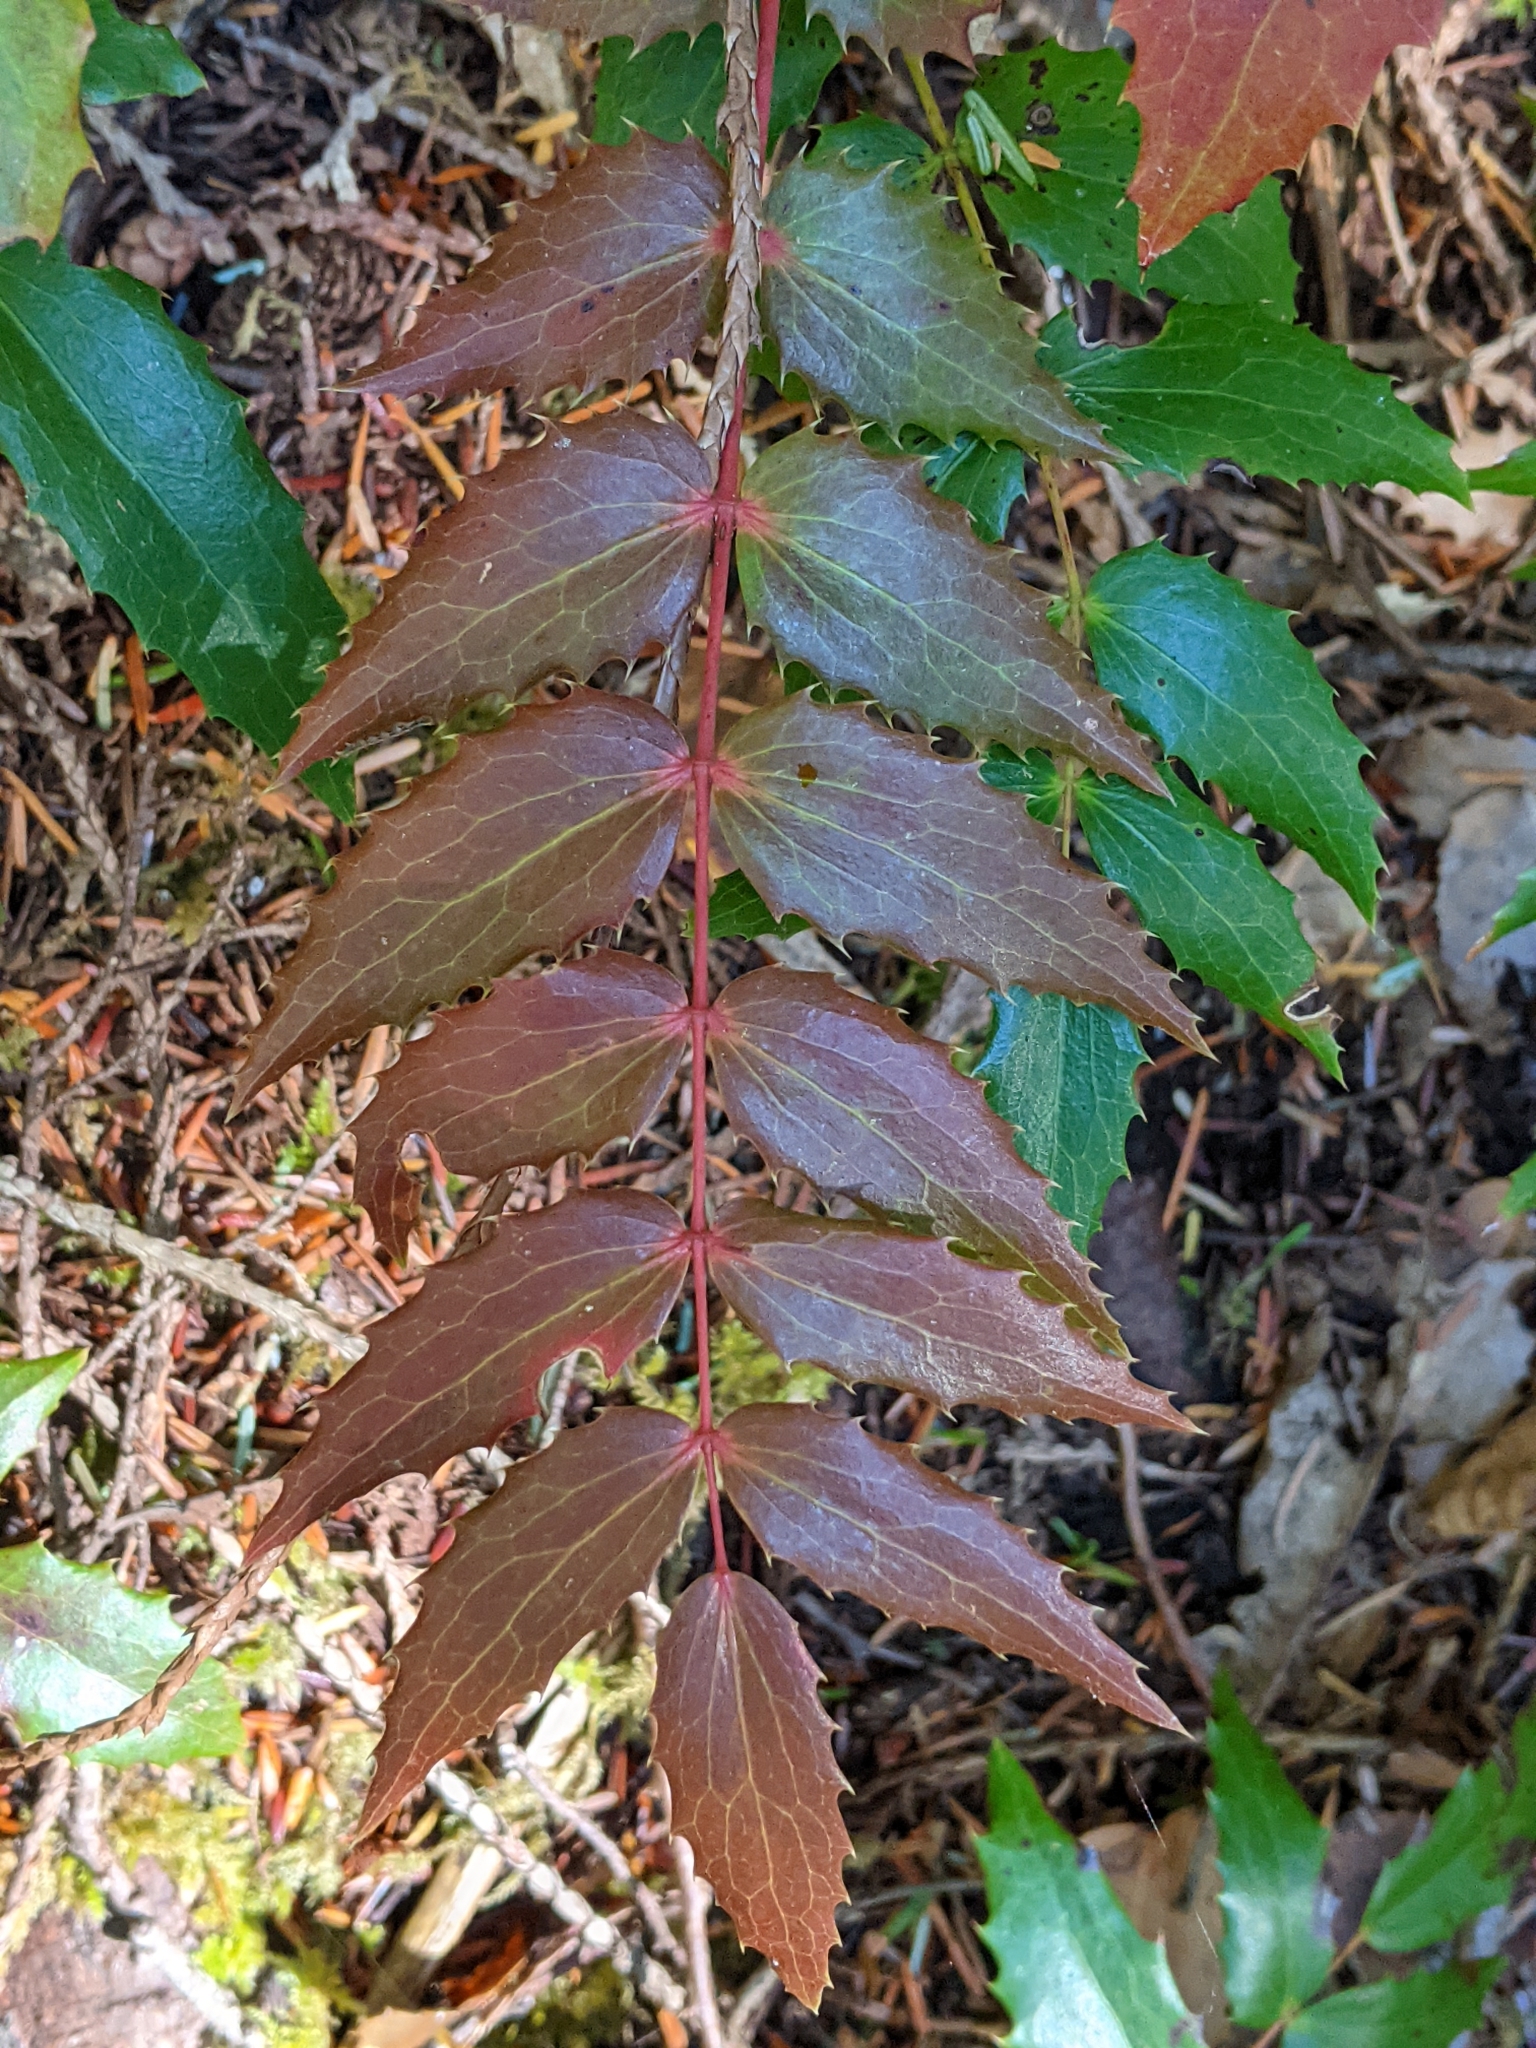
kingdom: Plantae
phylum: Tracheophyta
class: Magnoliopsida
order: Ranunculales
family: Berberidaceae
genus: Mahonia
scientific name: Mahonia nervosa
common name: Cascade oregon-grape
